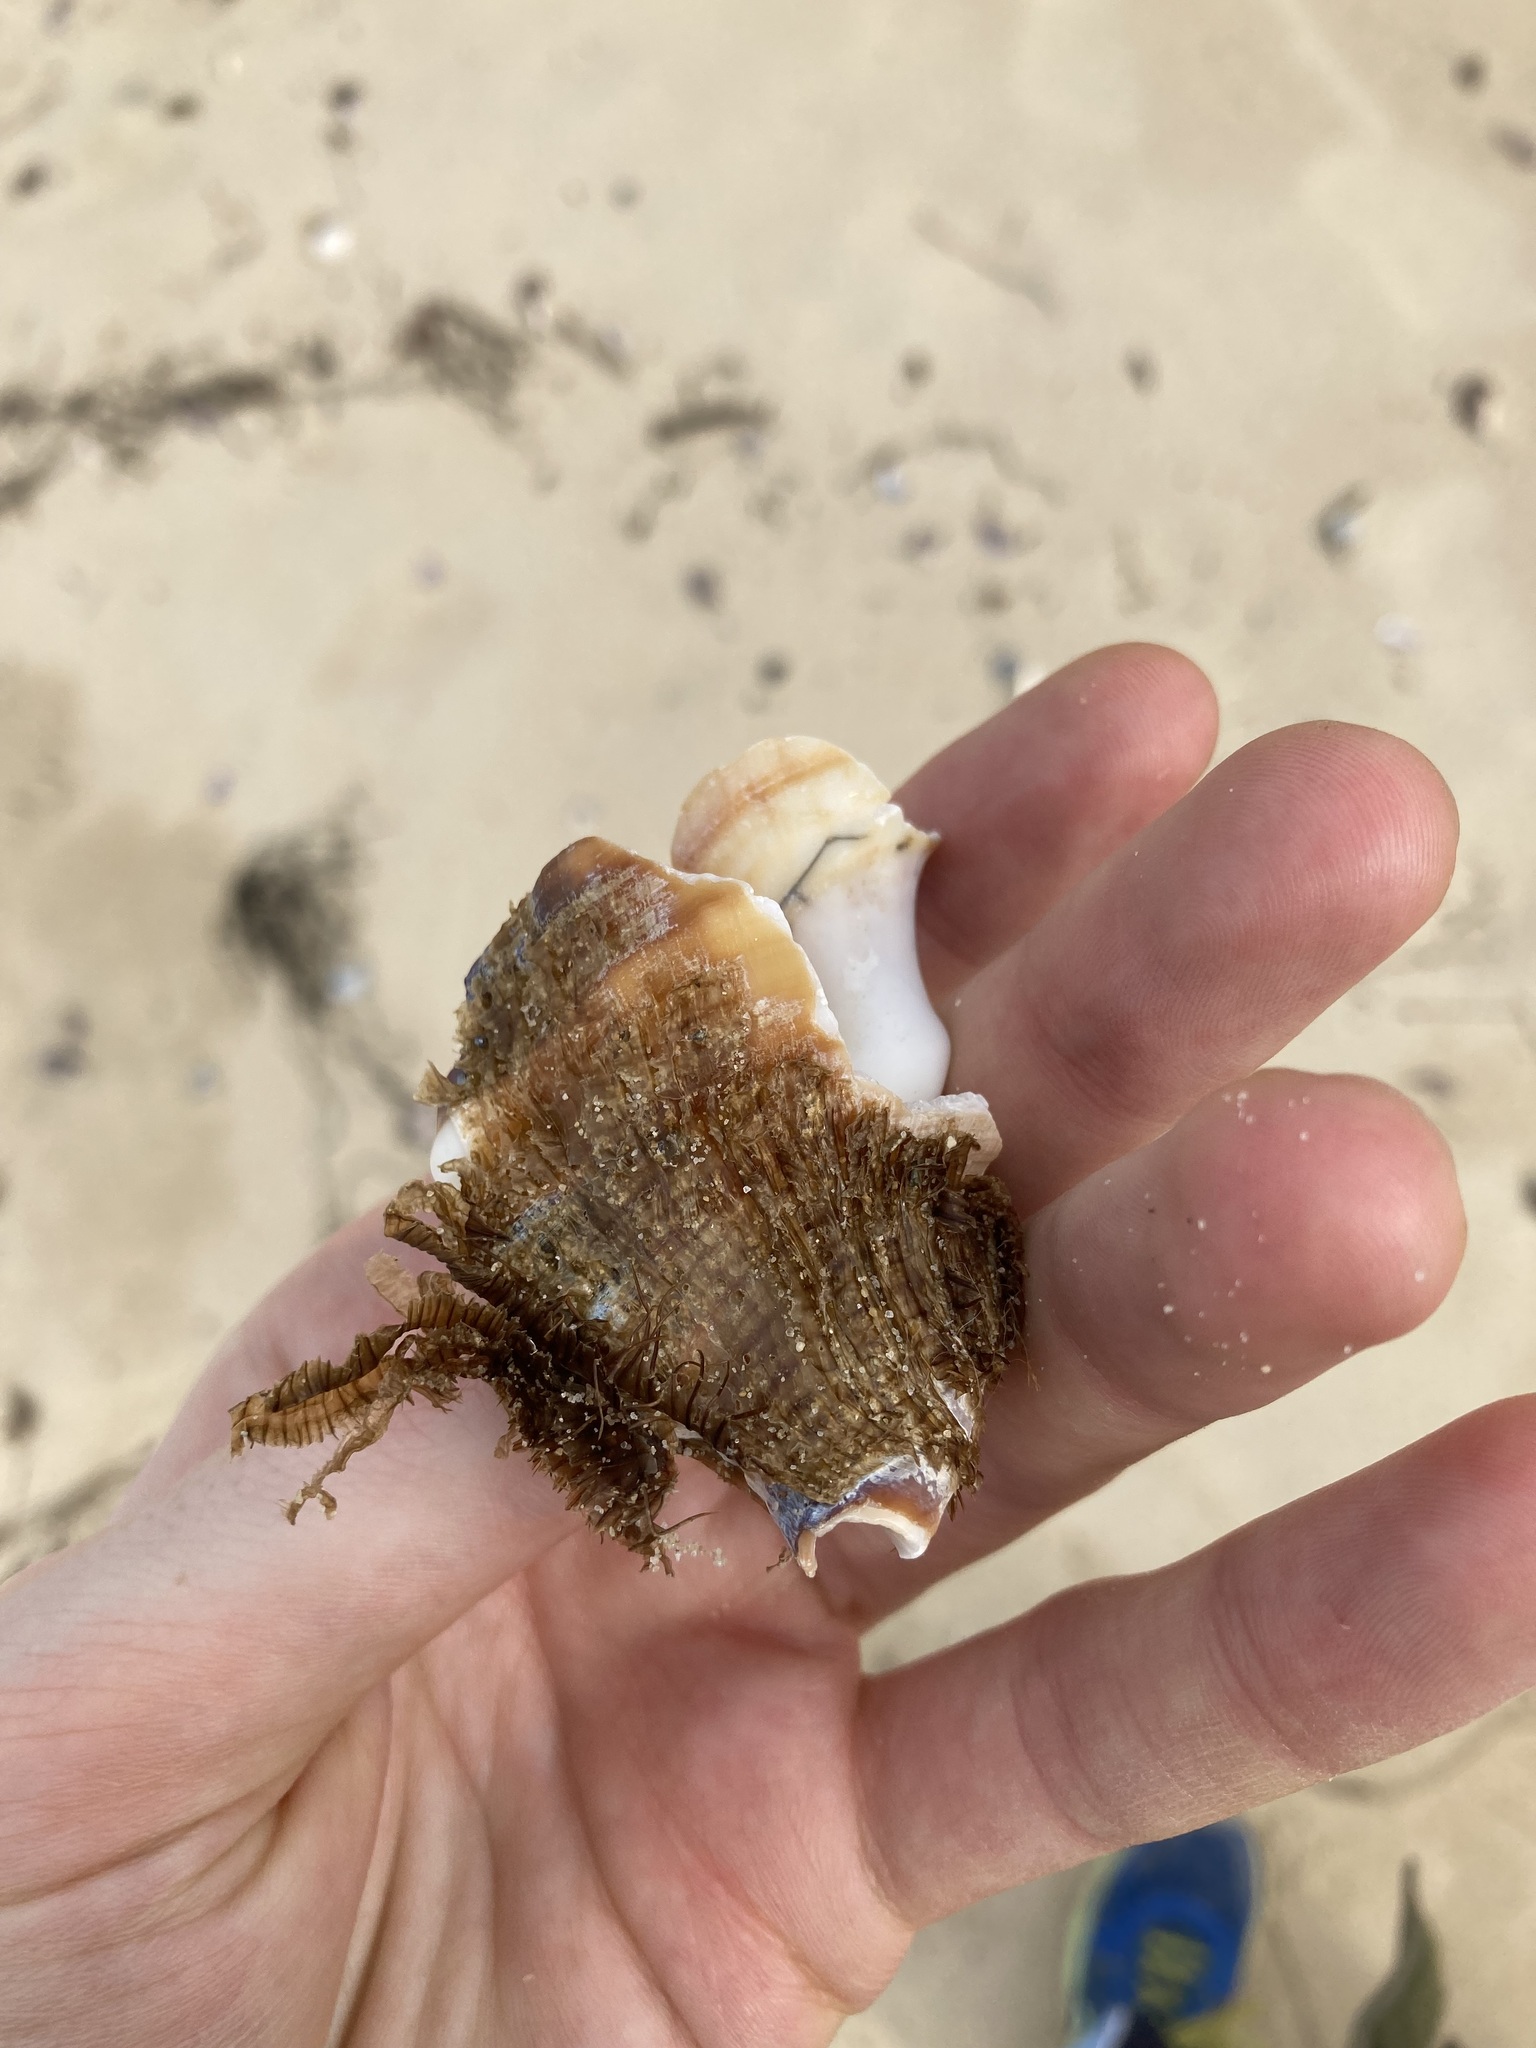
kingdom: Animalia
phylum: Mollusca
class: Gastropoda
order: Littorinimorpha
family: Cymatiidae
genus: Monoplex
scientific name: Monoplex parthenopeus
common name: Giant triton
